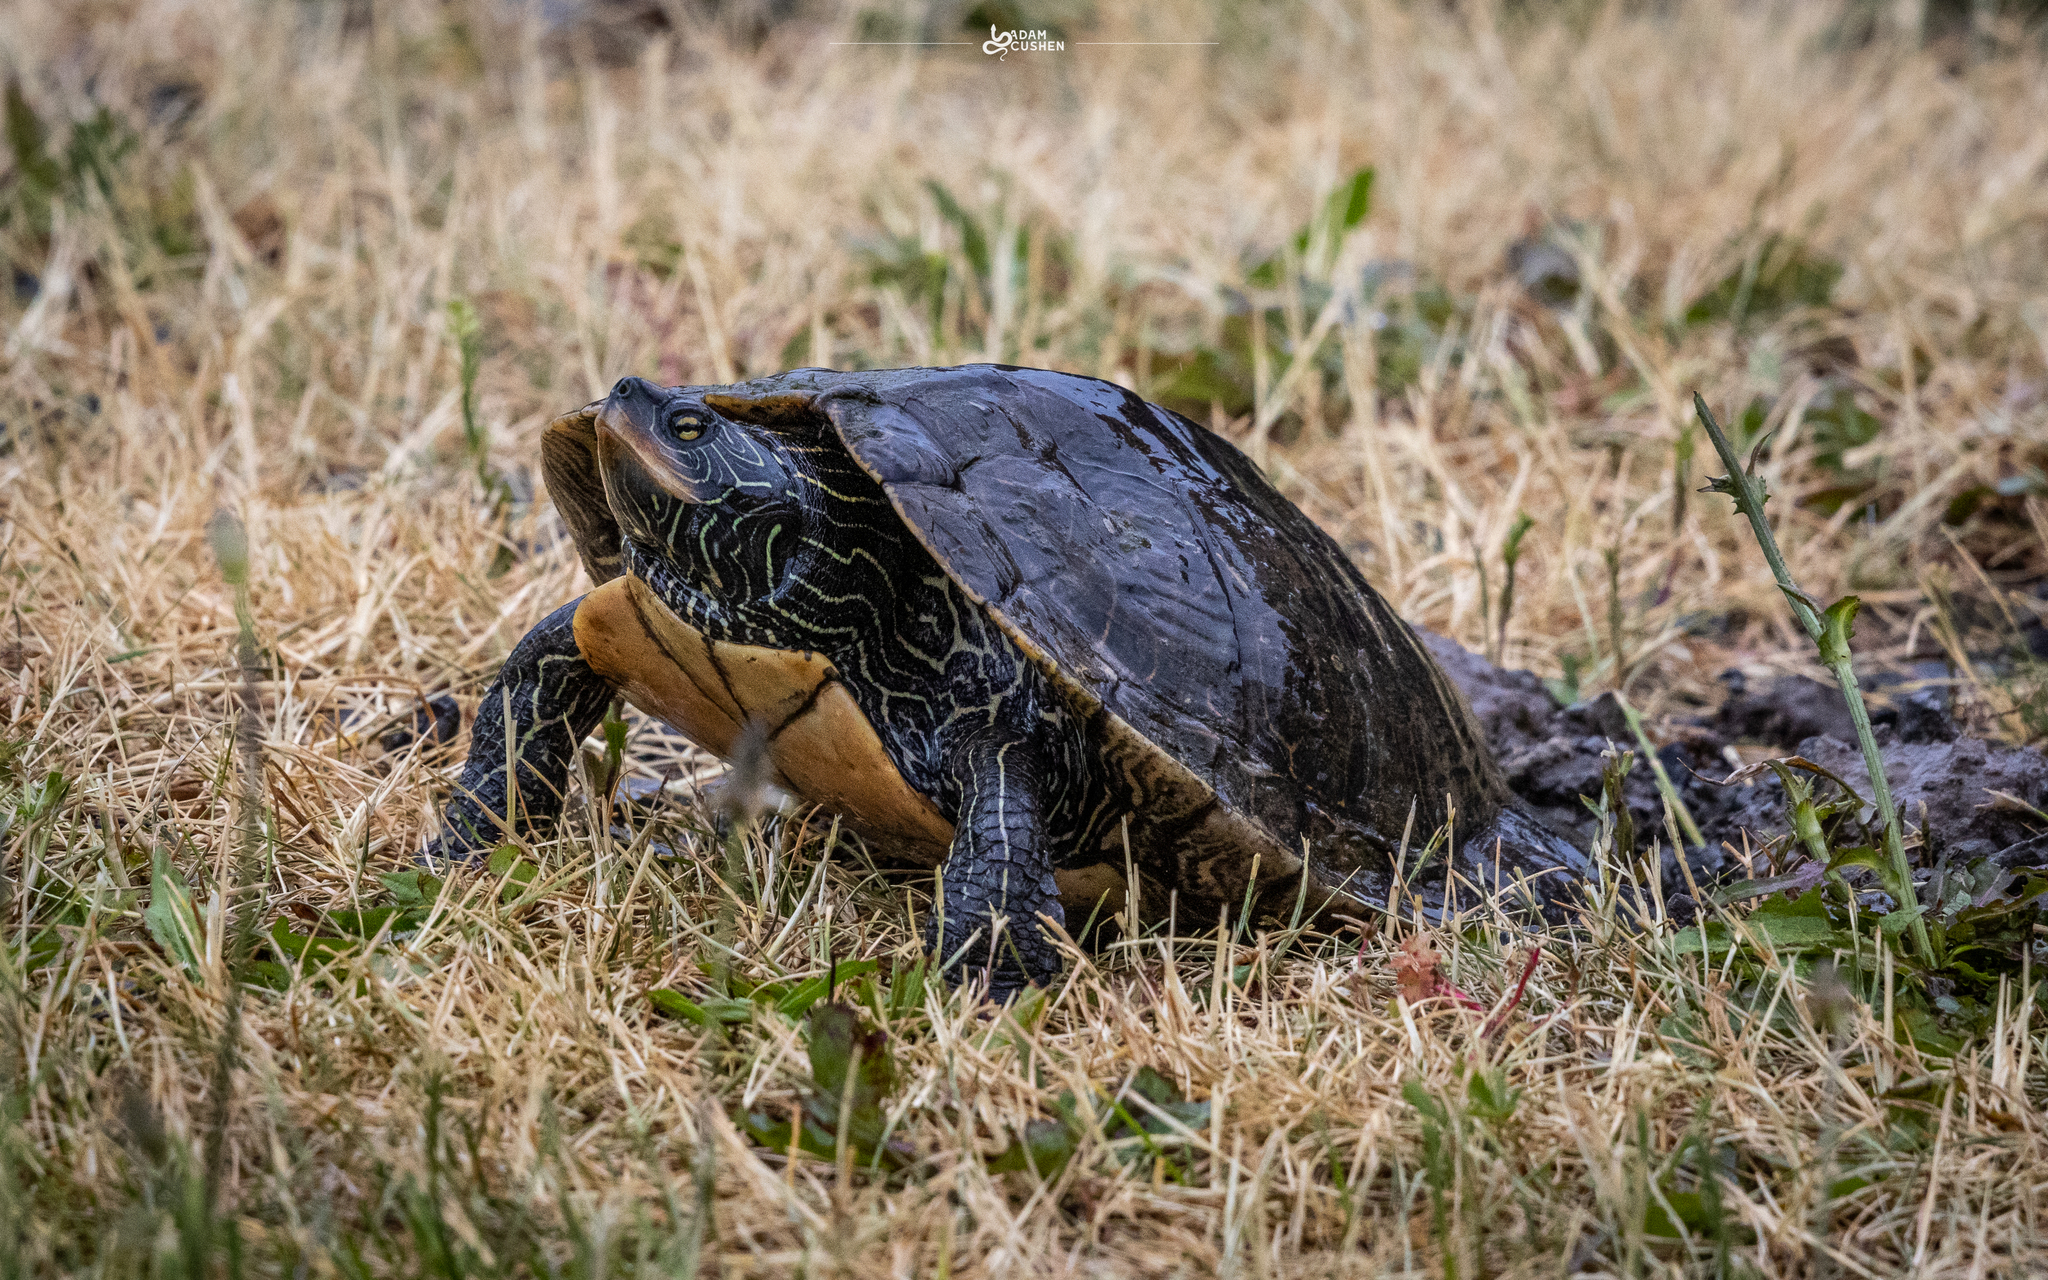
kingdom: Animalia
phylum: Chordata
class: Testudines
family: Emydidae
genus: Graptemys
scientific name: Graptemys geographica
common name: Common map turtle
